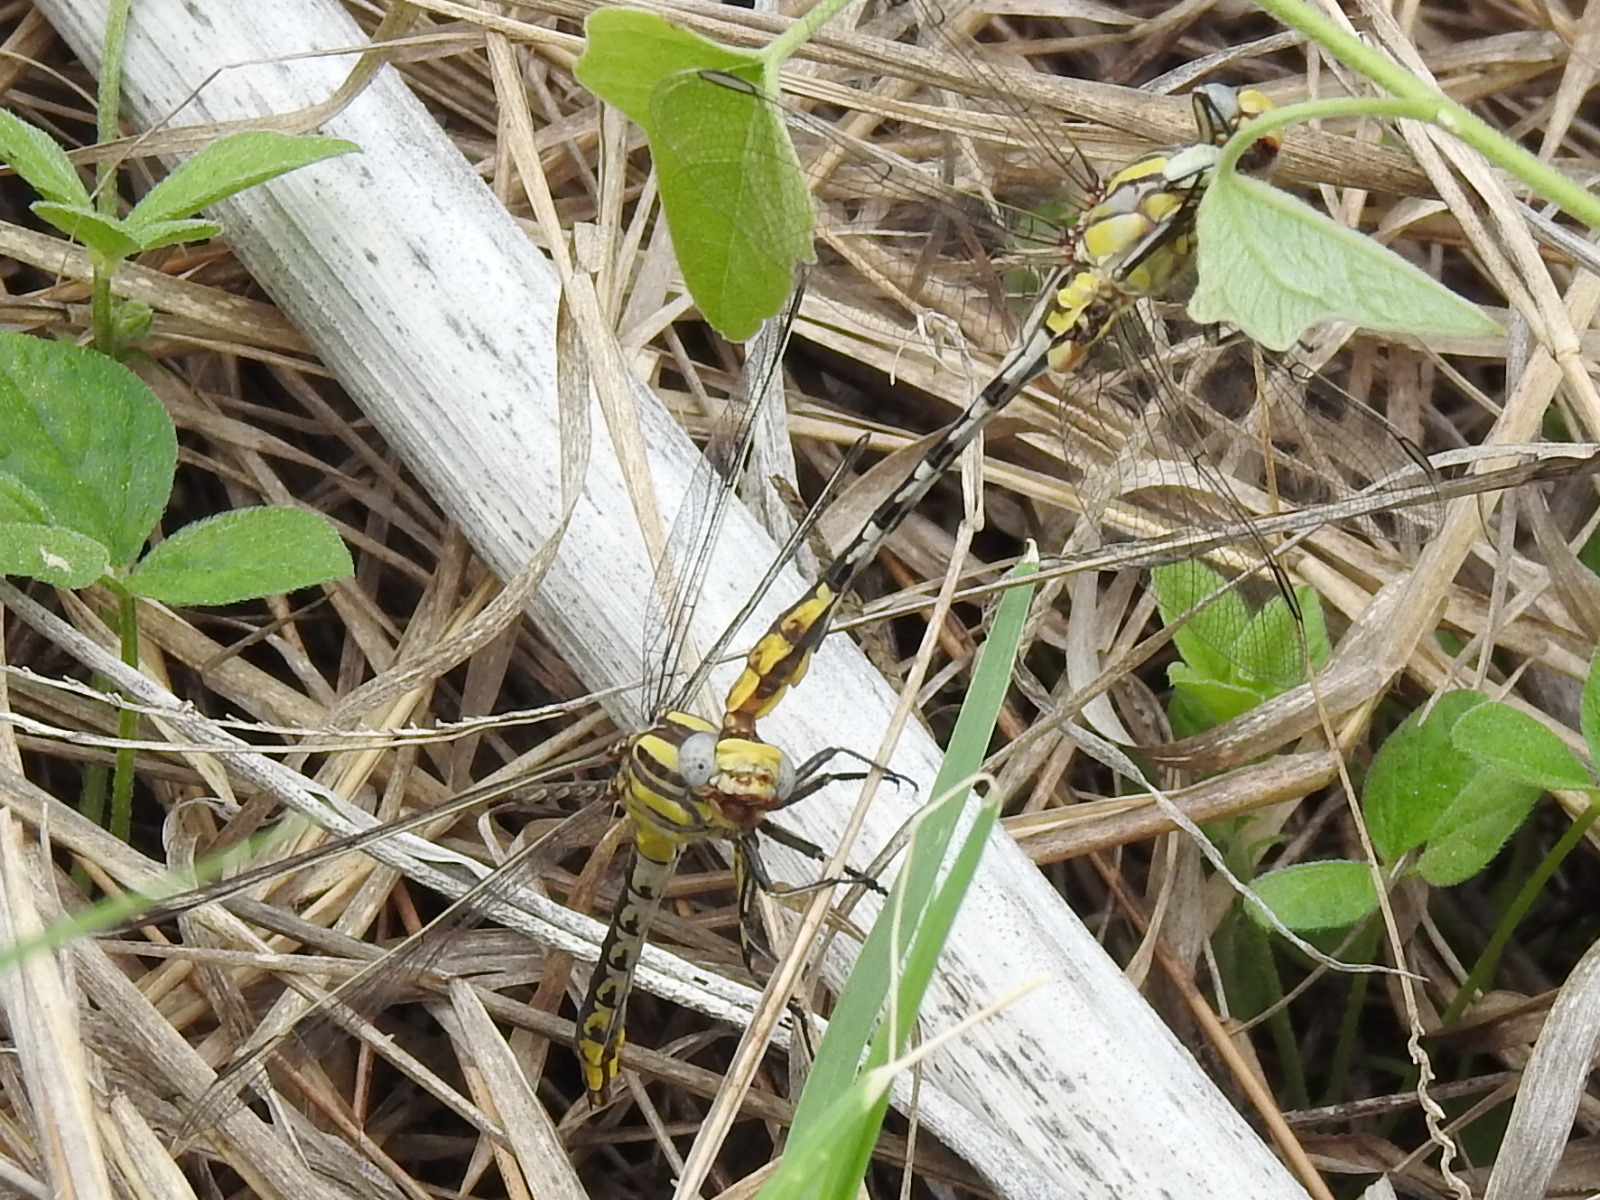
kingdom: Animalia
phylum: Arthropoda
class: Insecta
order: Odonata
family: Gomphidae
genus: Phanogomphus
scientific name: Phanogomphus militaris
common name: Sulphur-tipped clubtail
